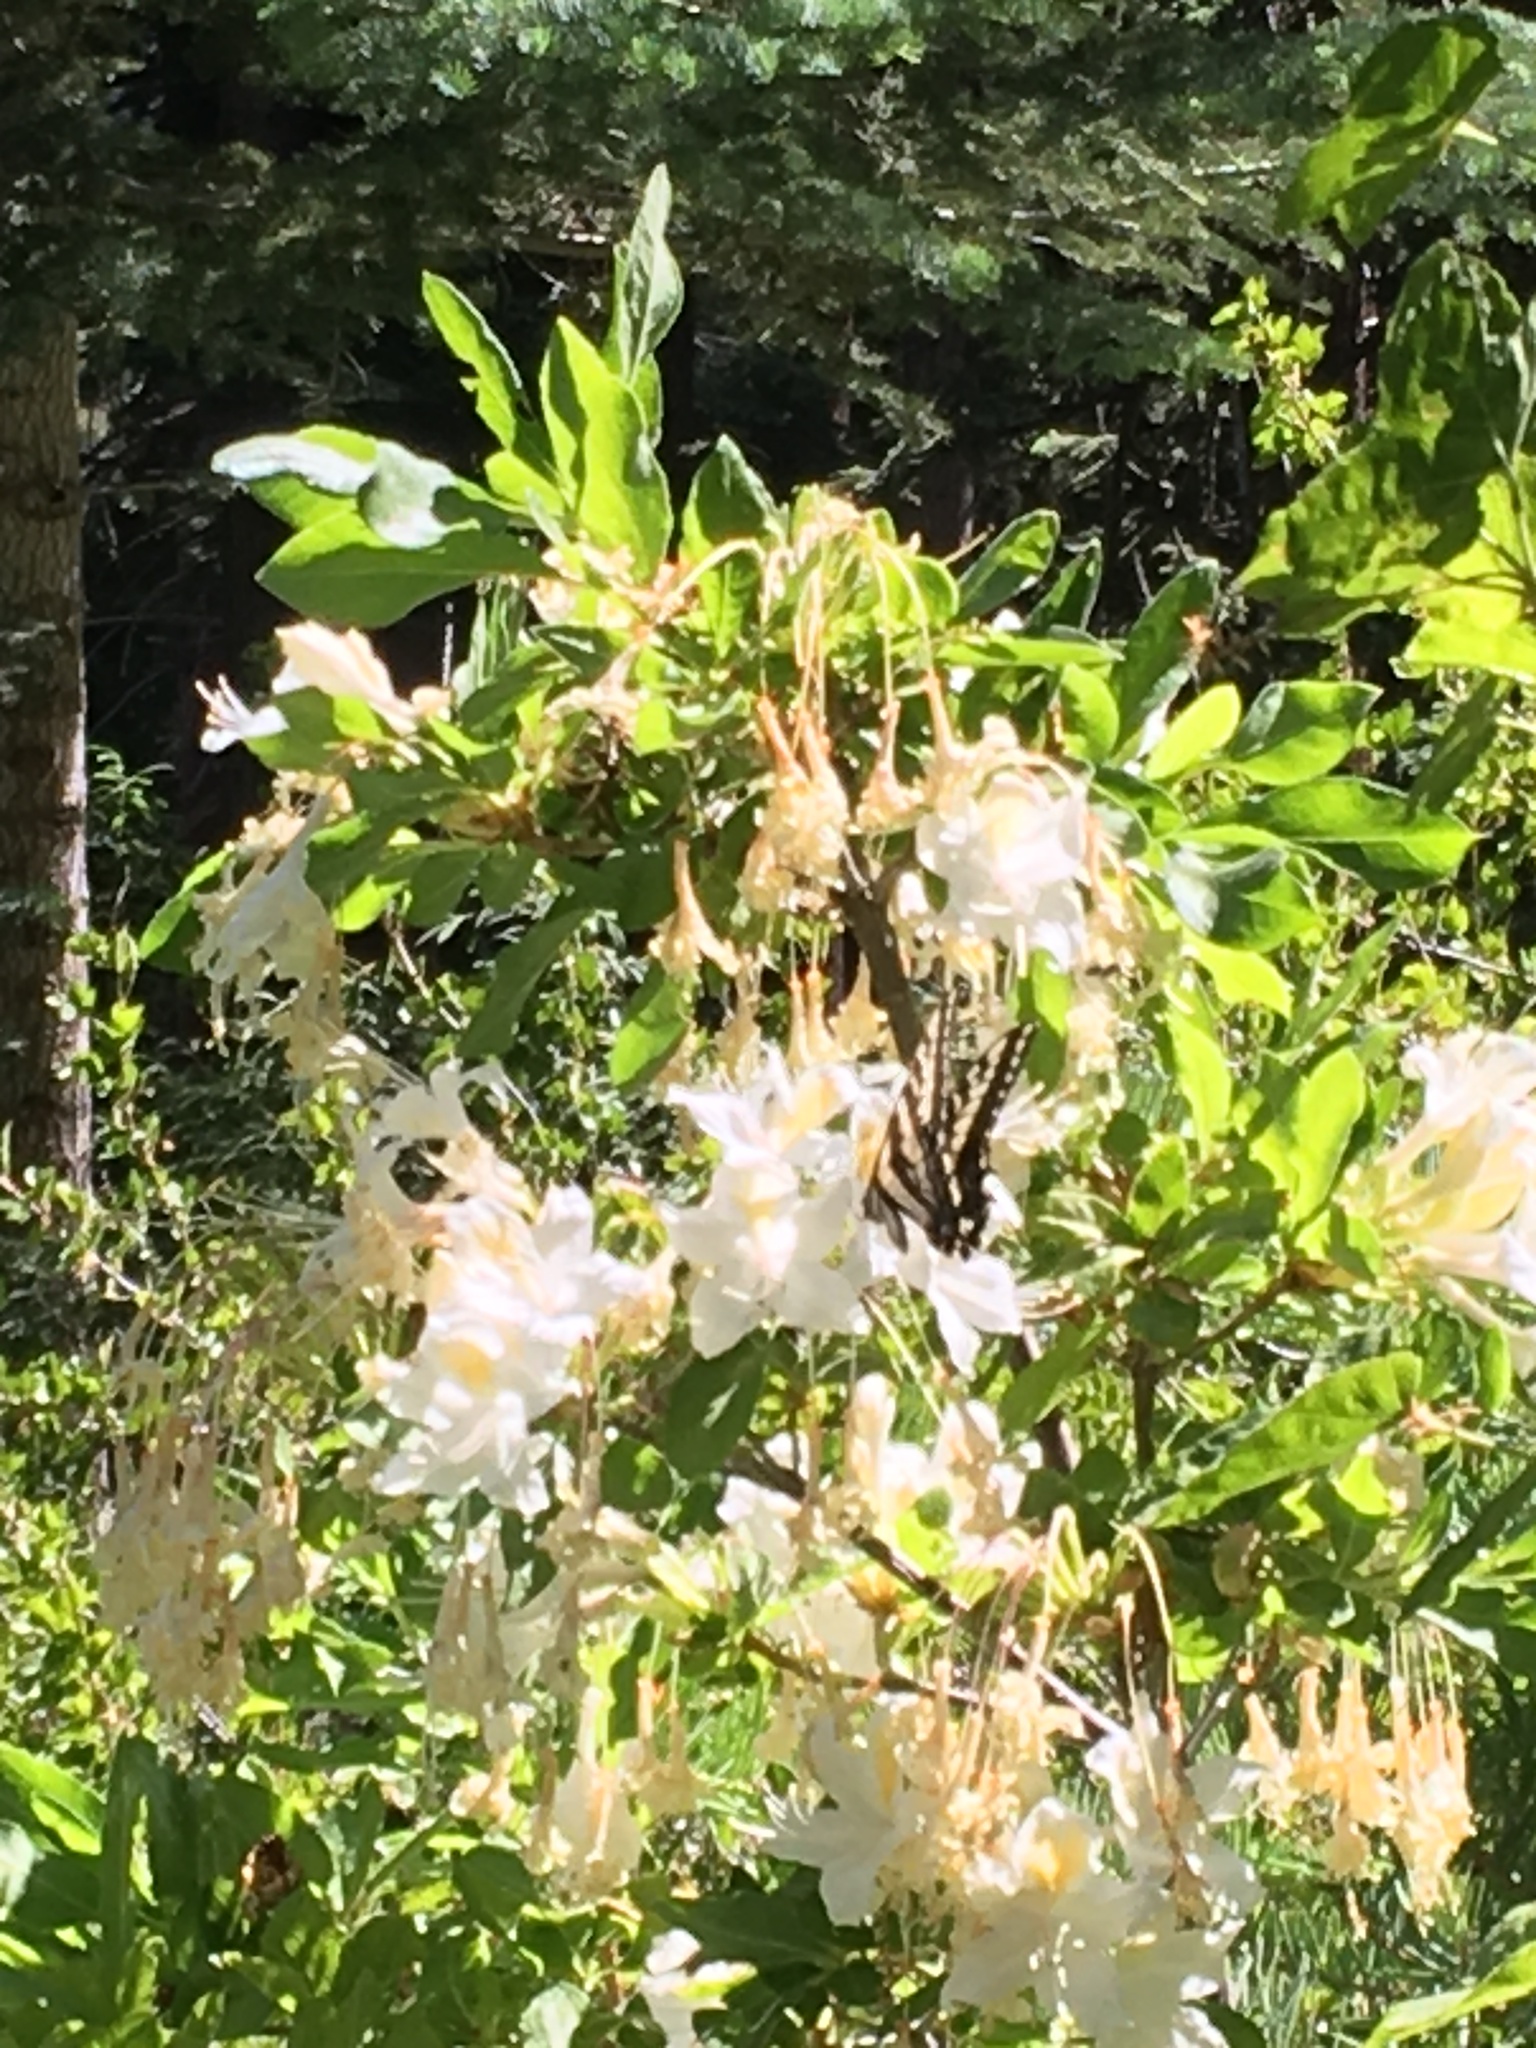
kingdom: Animalia
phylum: Arthropoda
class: Insecta
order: Lepidoptera
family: Papilionidae
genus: Papilio
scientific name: Papilio eurymedon
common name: Pale tiger swallowtail
